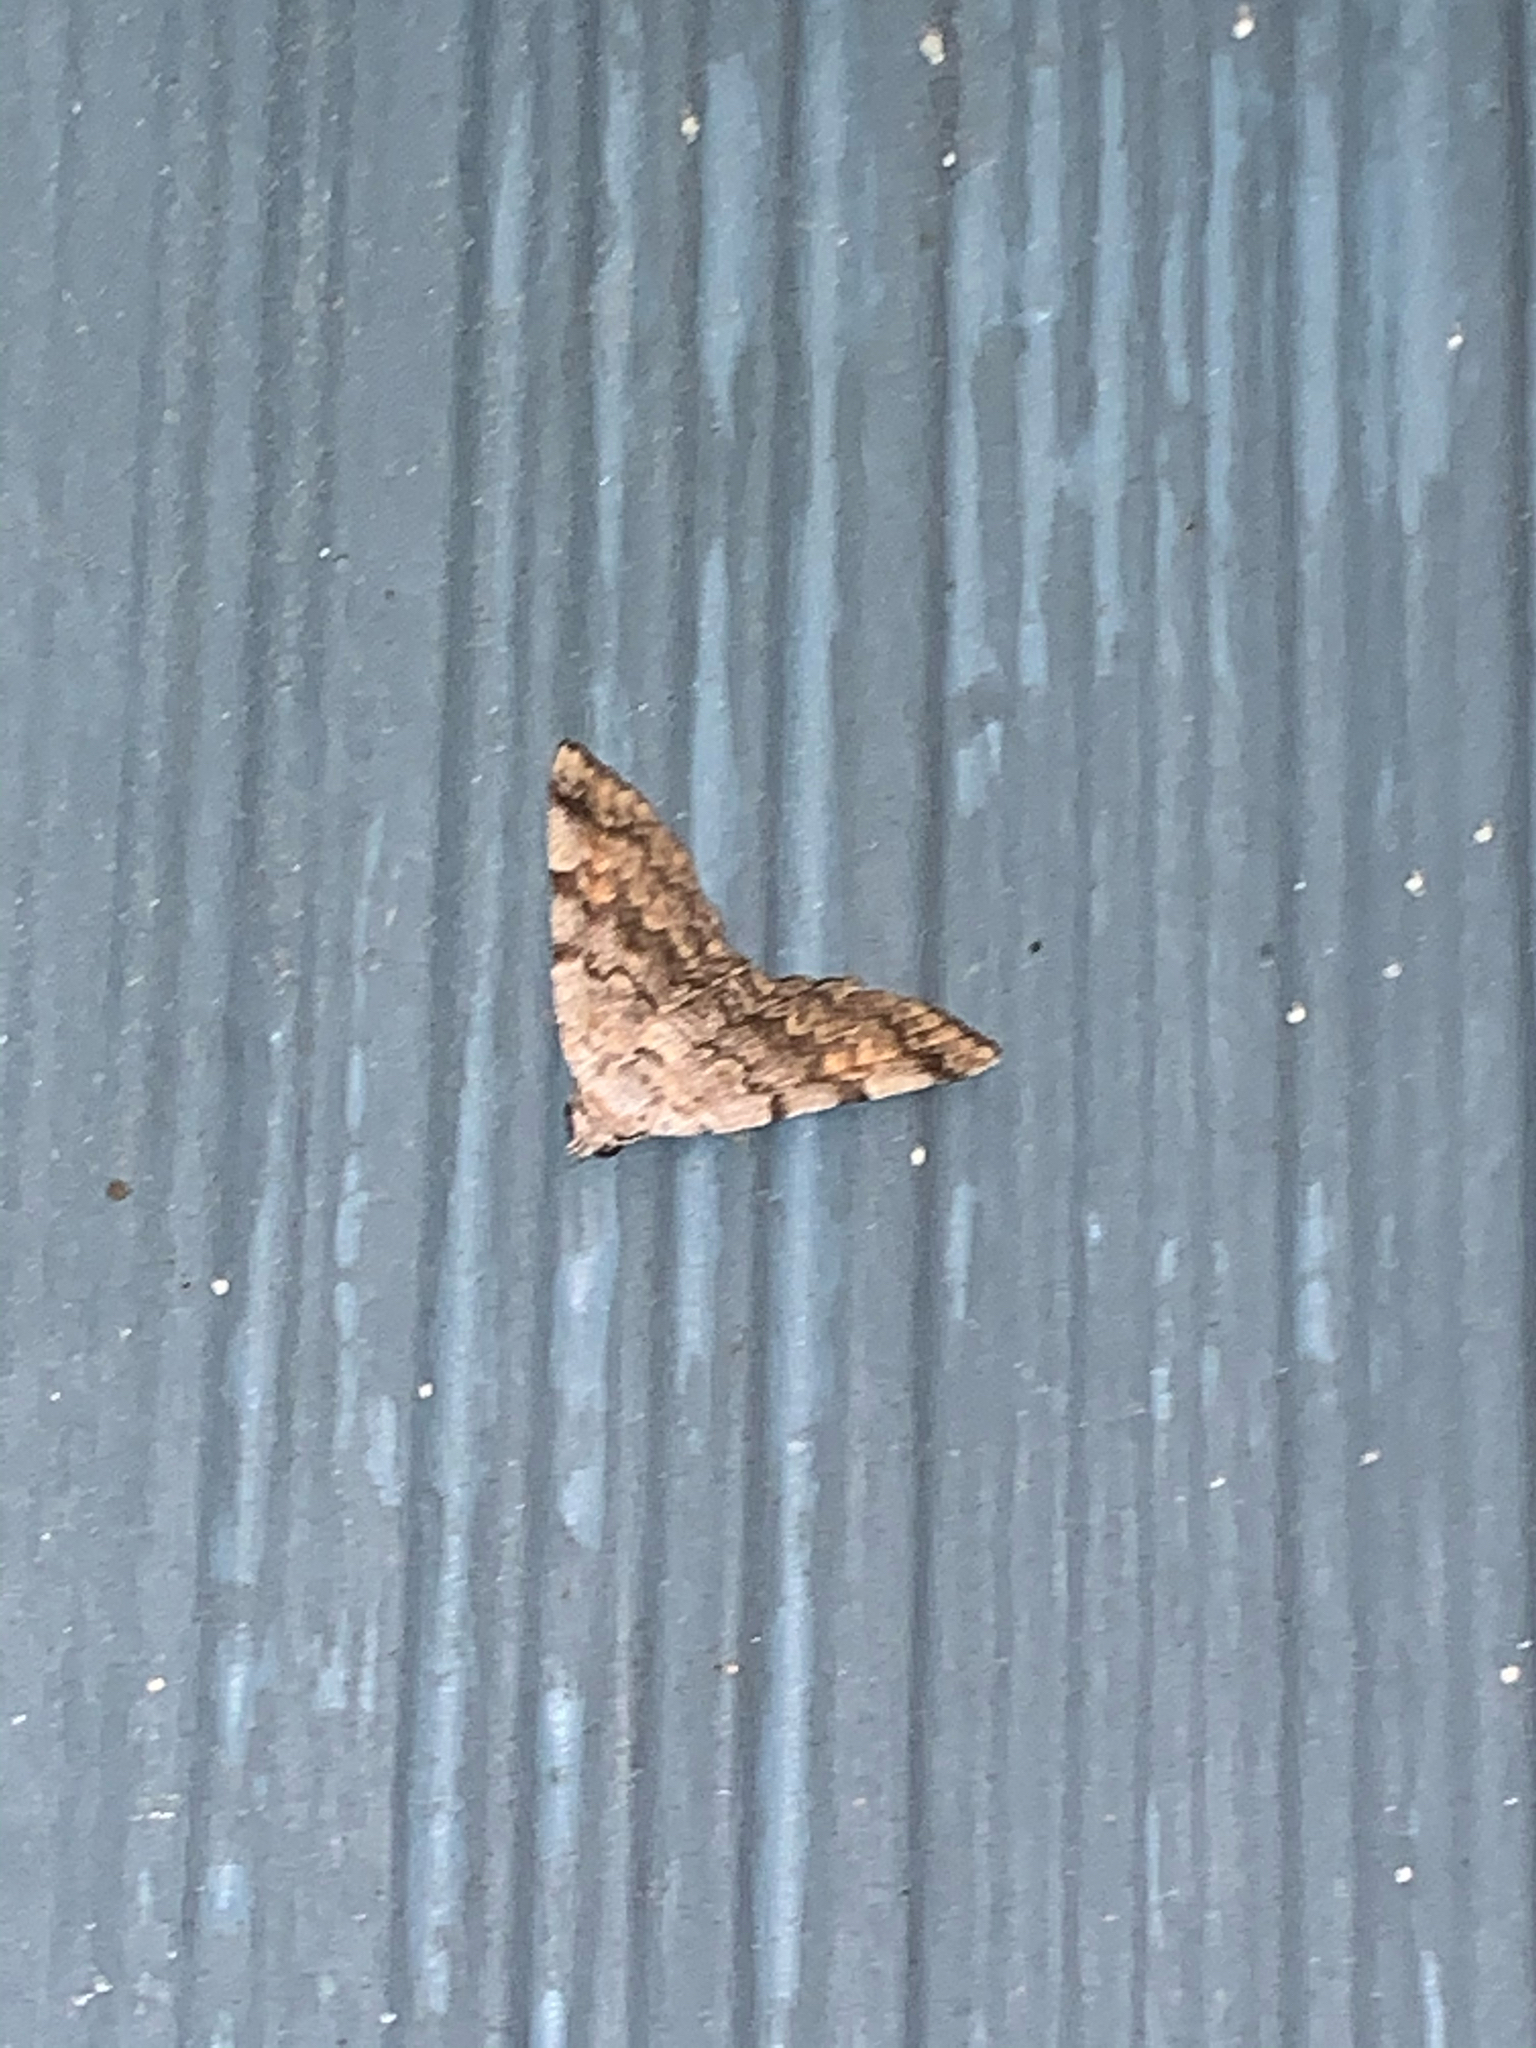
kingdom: Animalia
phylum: Arthropoda
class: Insecta
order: Lepidoptera
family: Erebidae
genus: Idia
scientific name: Idia americalis
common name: American idia moth
